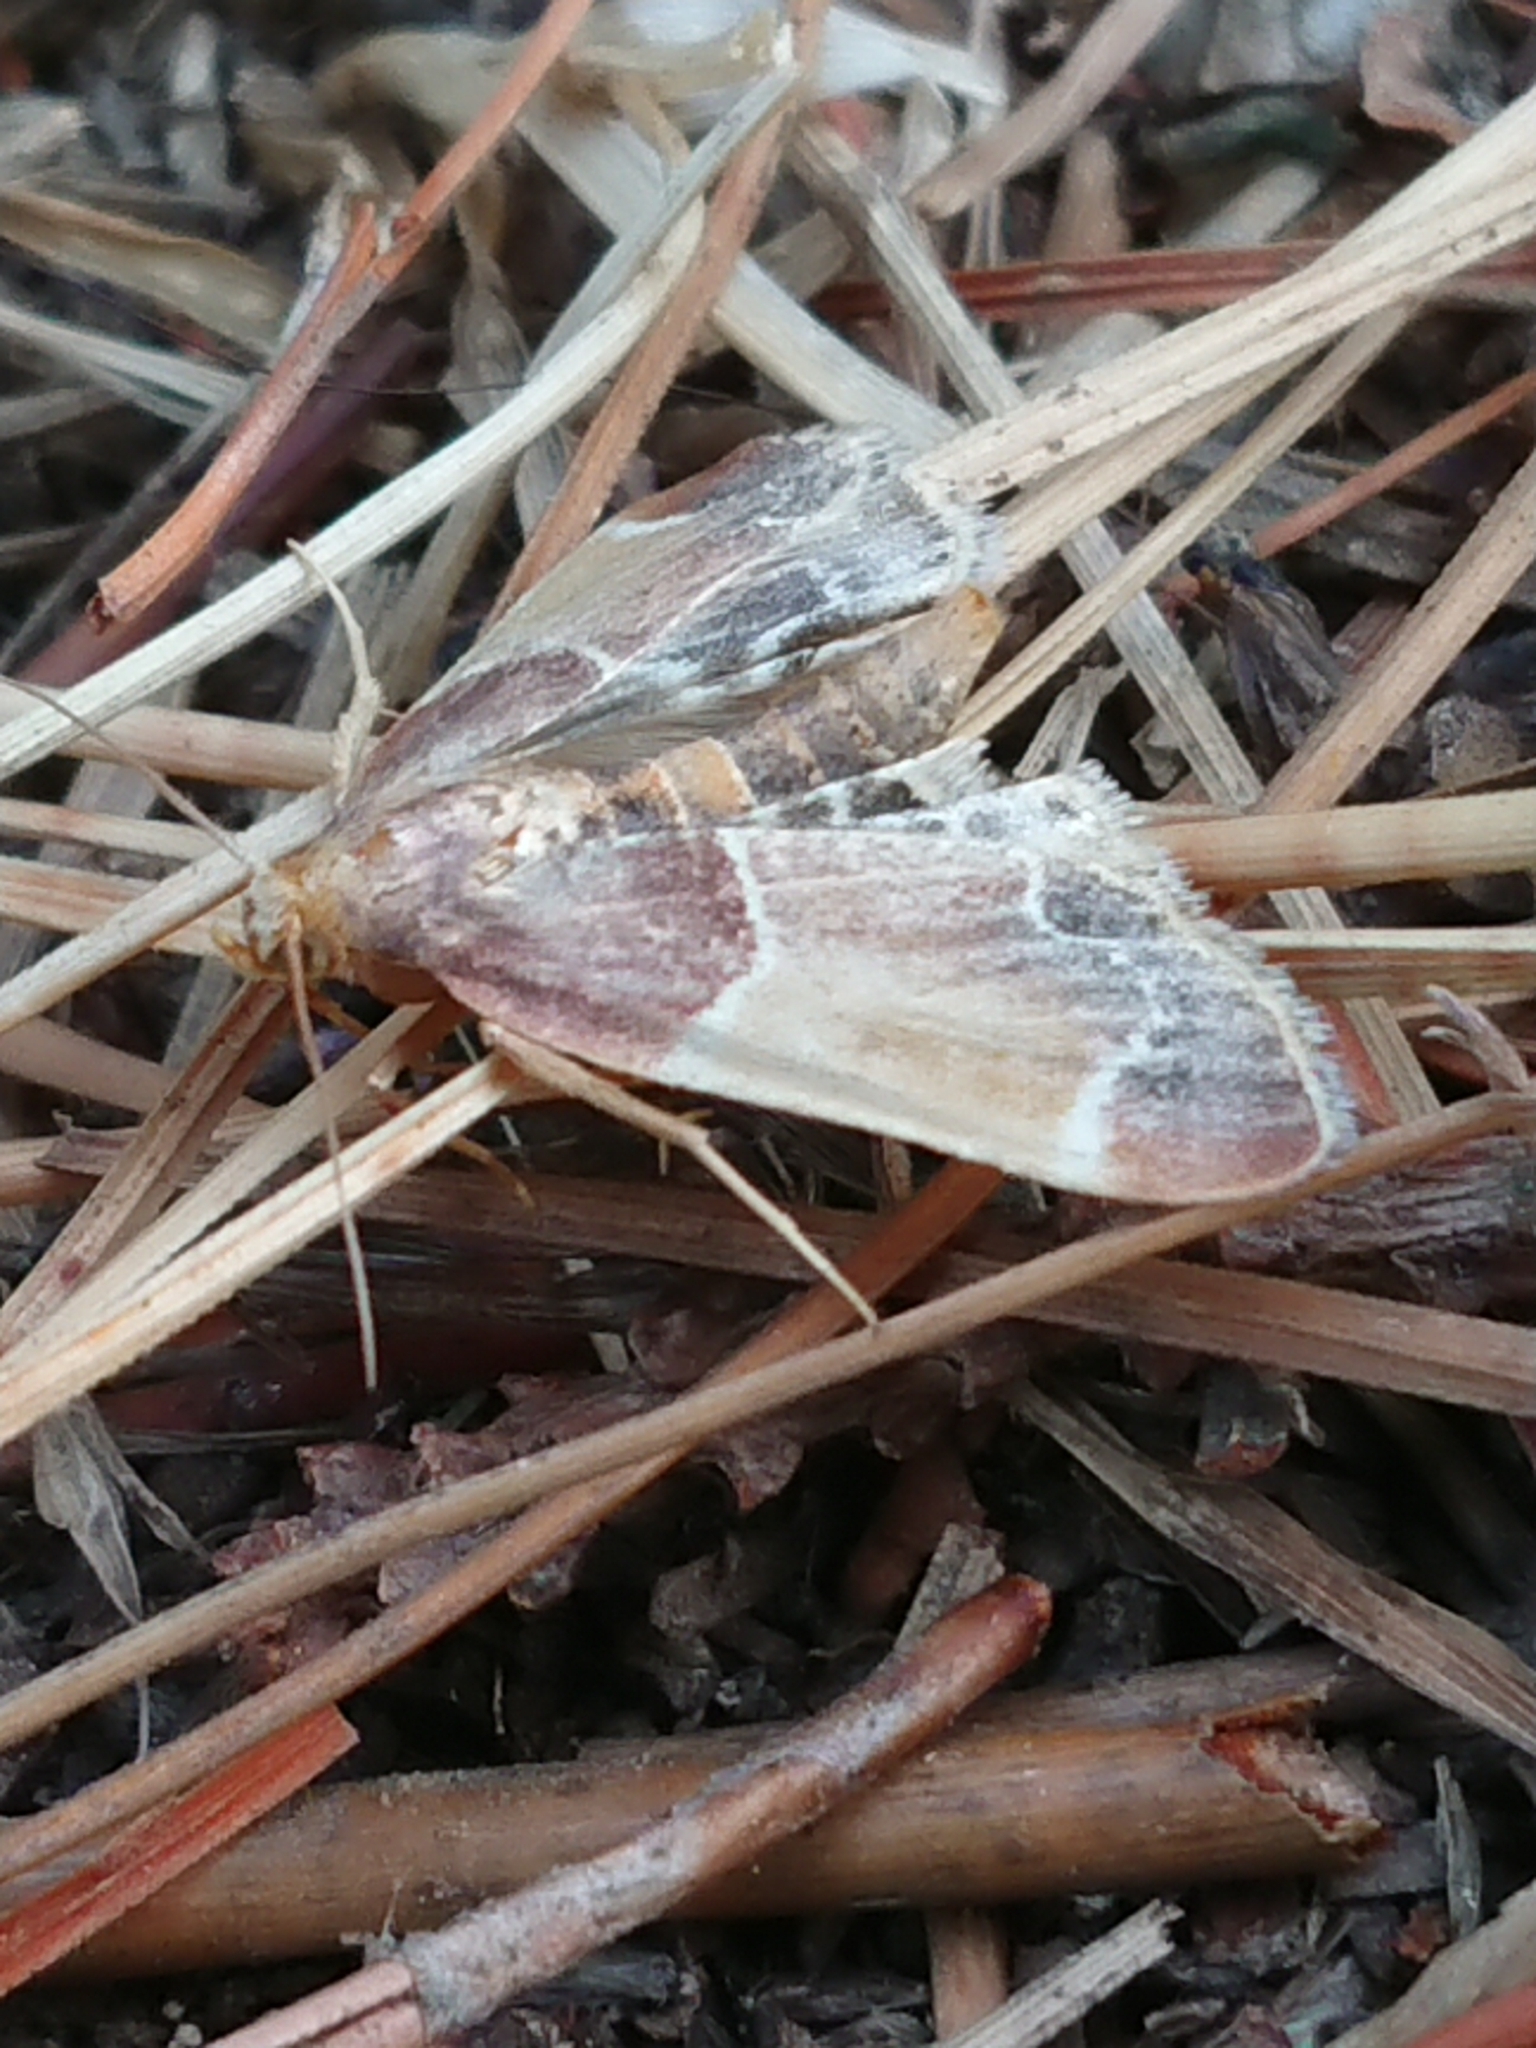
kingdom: Animalia
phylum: Arthropoda
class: Insecta
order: Lepidoptera
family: Pyralidae
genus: Pyralis
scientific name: Pyralis farinalis
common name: Meal moth
